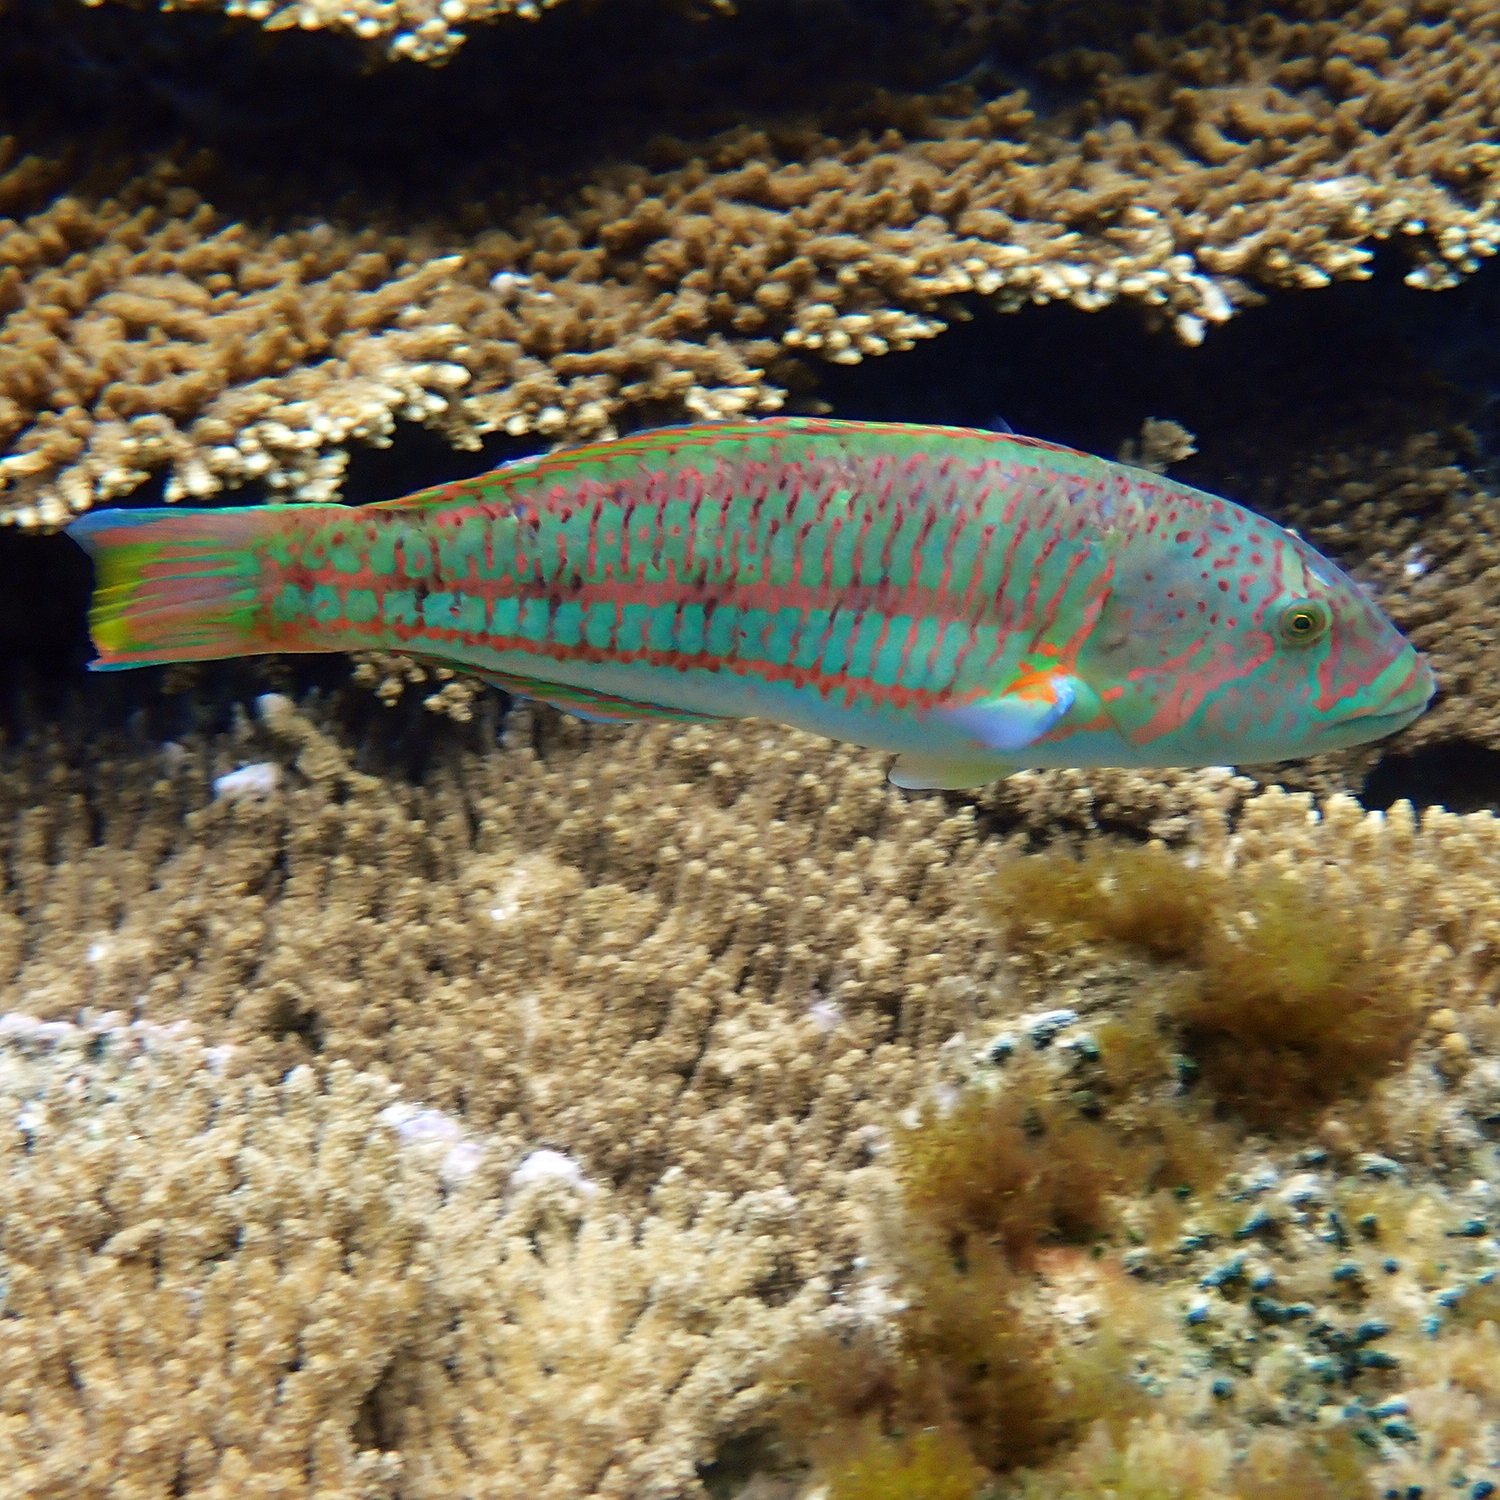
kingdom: Animalia
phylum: Chordata
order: Perciformes
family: Labridae
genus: Thalassoma
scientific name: Thalassoma purpureum
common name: Parrotfish
